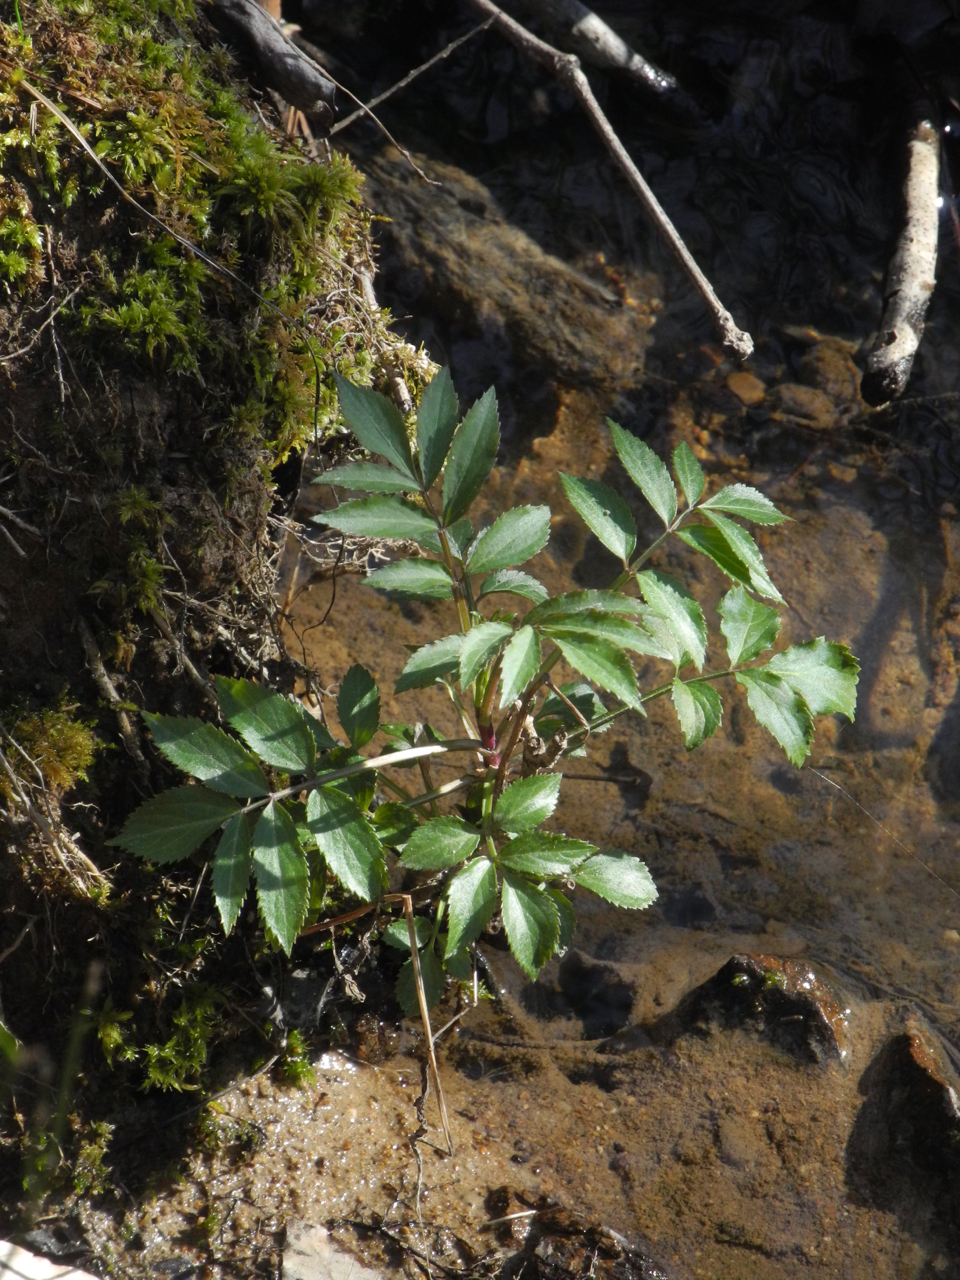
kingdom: Plantae
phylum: Tracheophyta
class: Magnoliopsida
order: Dipsacales
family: Viburnaceae
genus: Sambucus
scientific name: Sambucus canadensis
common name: American elder
